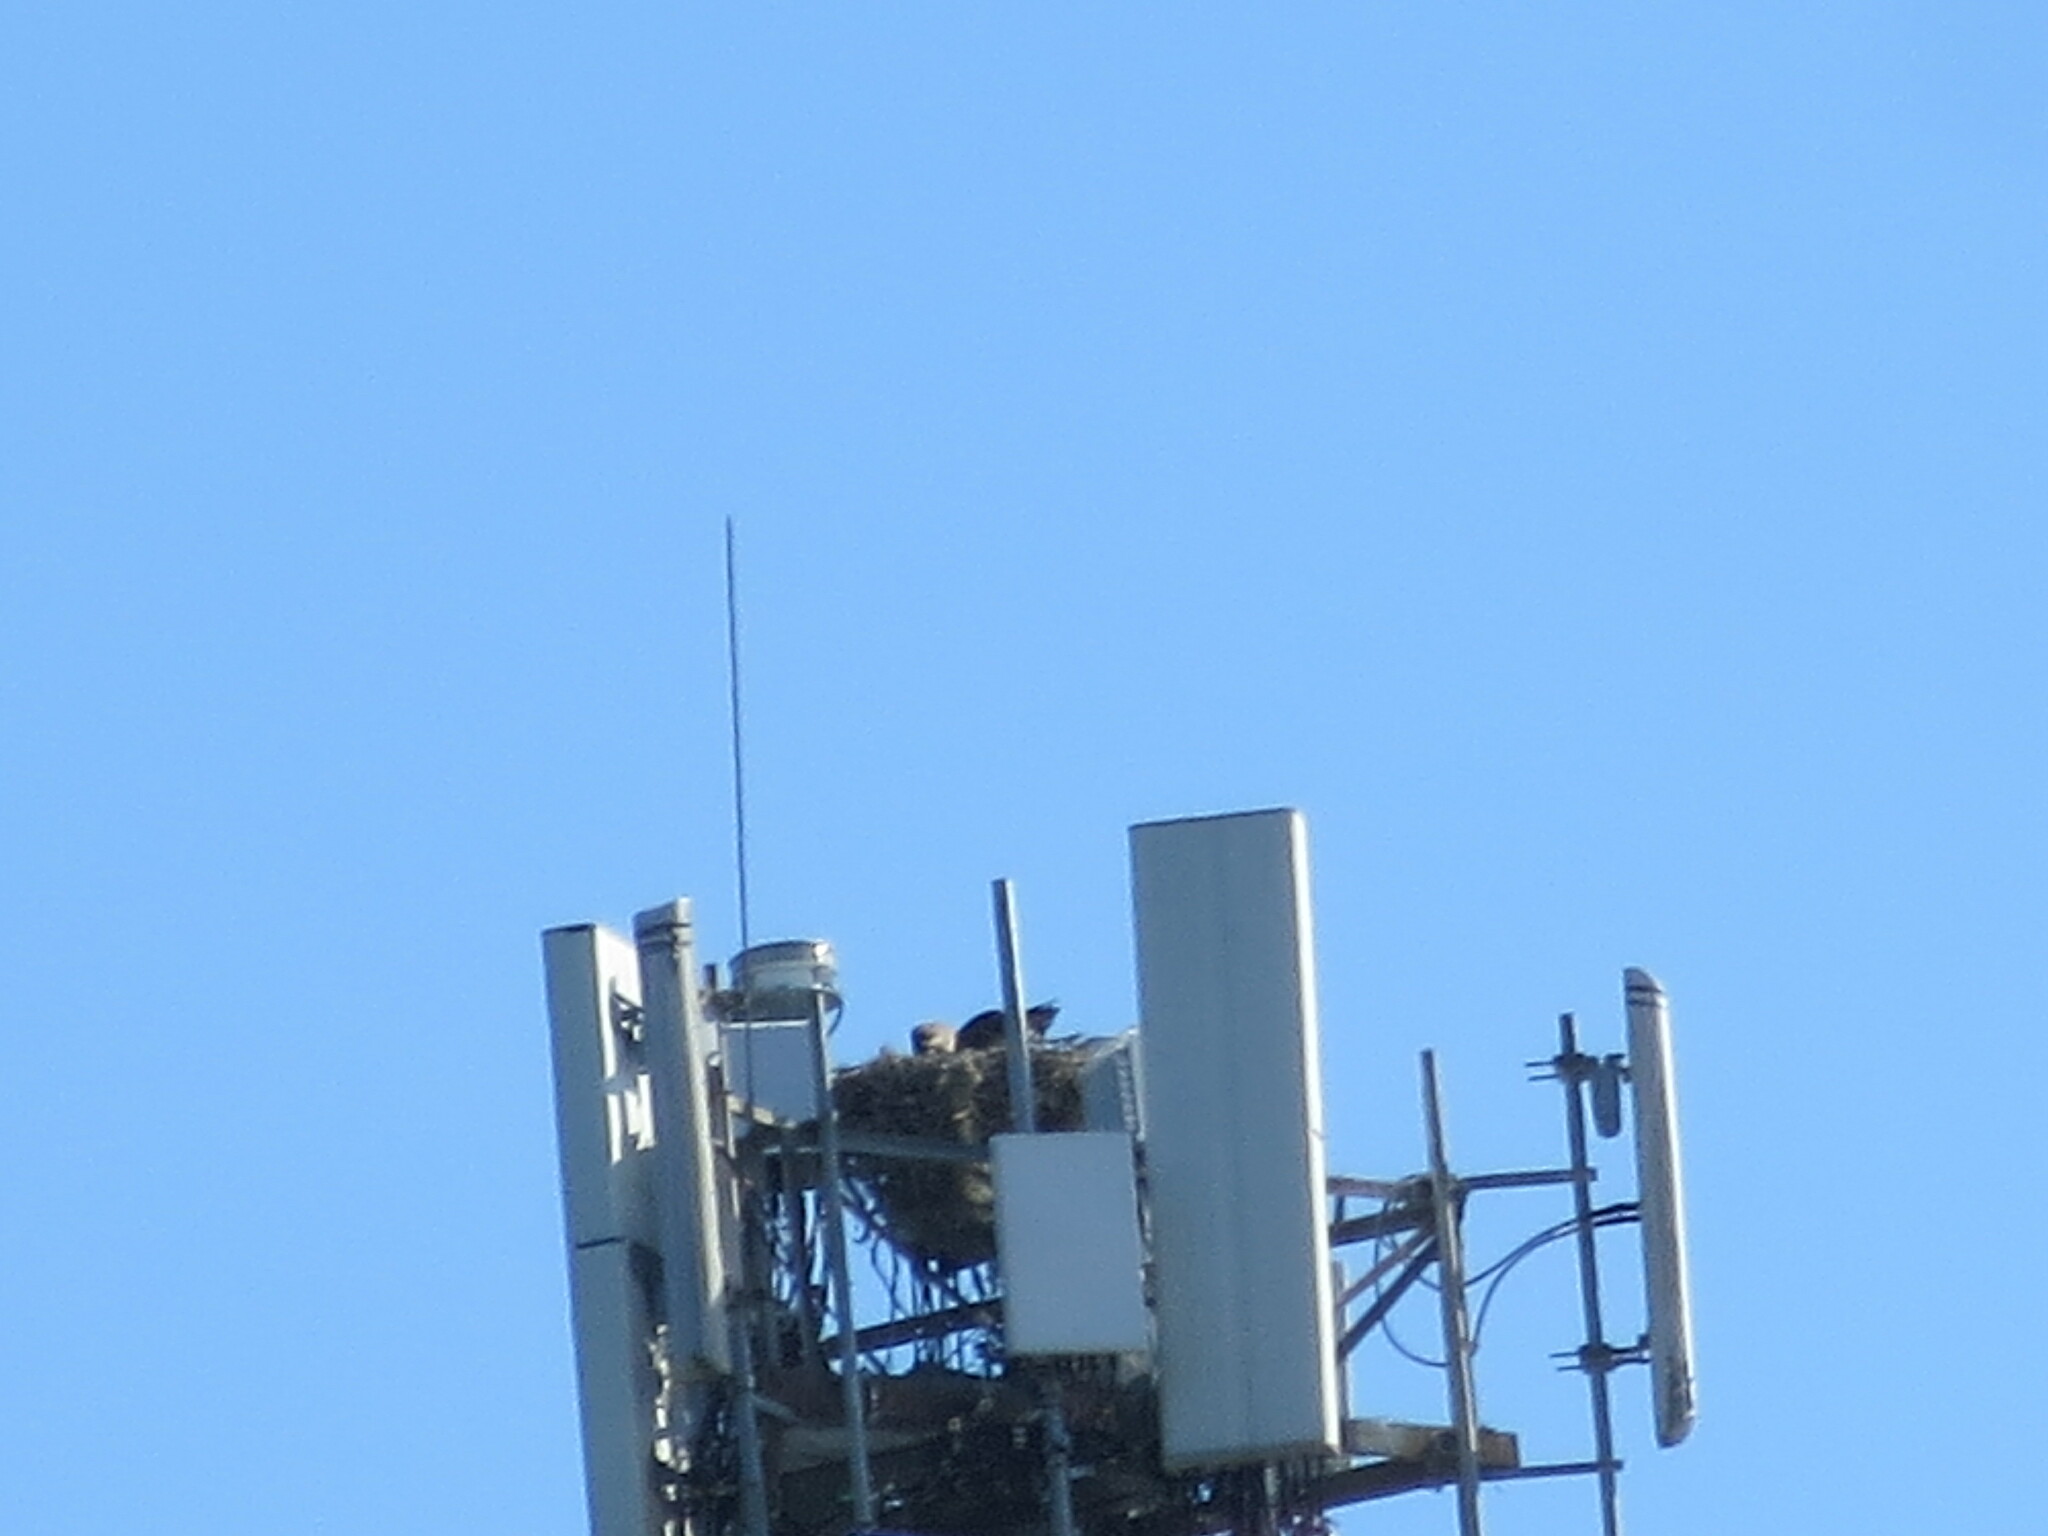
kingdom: Animalia
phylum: Chordata
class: Aves
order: Accipitriformes
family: Pandionidae
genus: Pandion
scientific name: Pandion haliaetus
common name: Osprey
